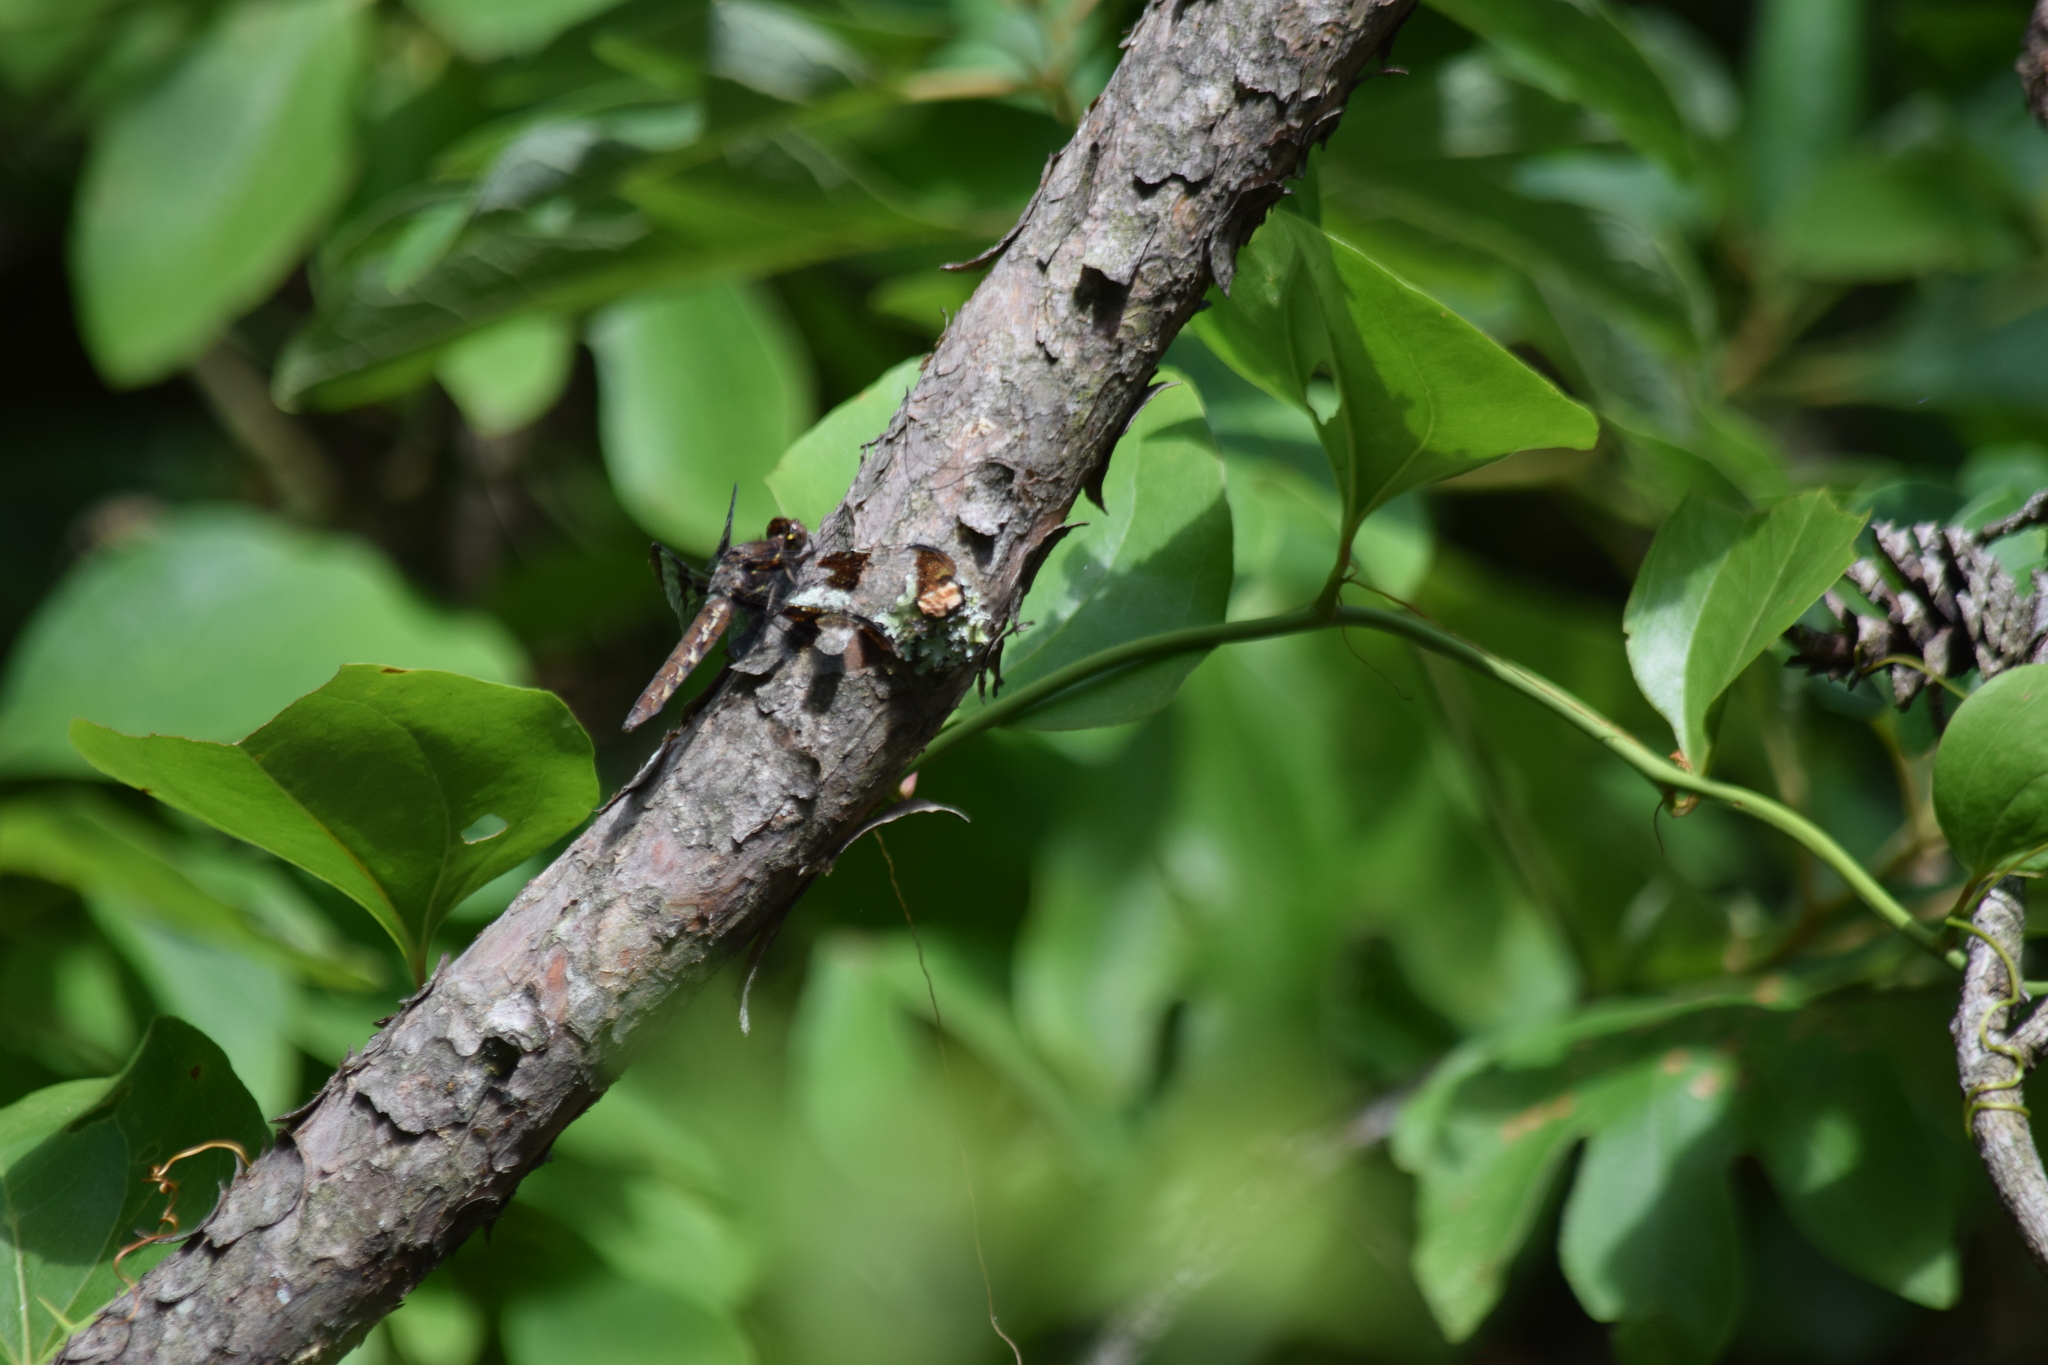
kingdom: Animalia
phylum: Arthropoda
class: Insecta
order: Odonata
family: Libellulidae
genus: Plathemis
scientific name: Plathemis lydia
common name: Common whitetail
